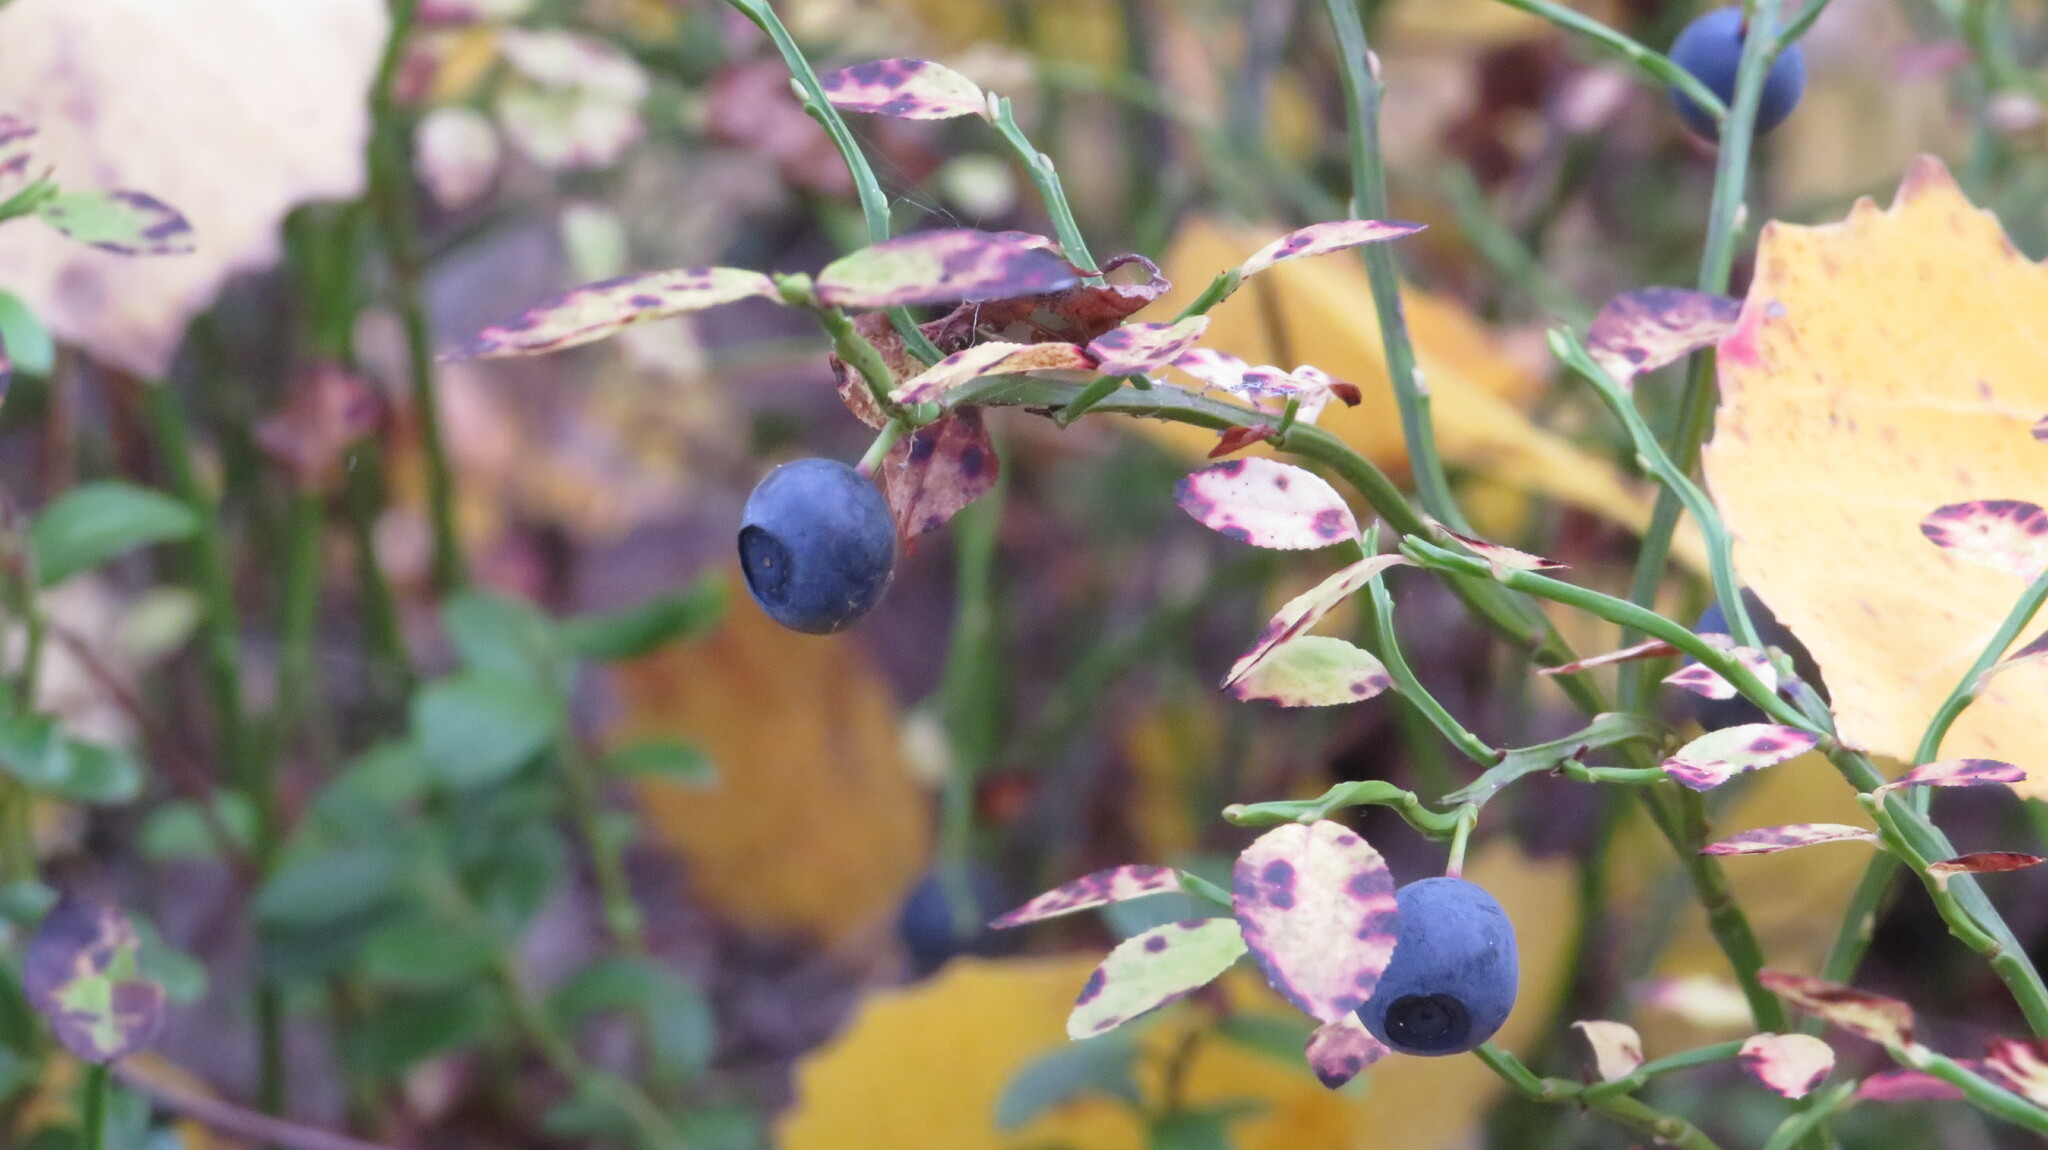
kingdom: Plantae
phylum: Tracheophyta
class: Magnoliopsida
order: Ericales
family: Ericaceae
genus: Vaccinium
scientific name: Vaccinium myrtillus
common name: Bilberry
